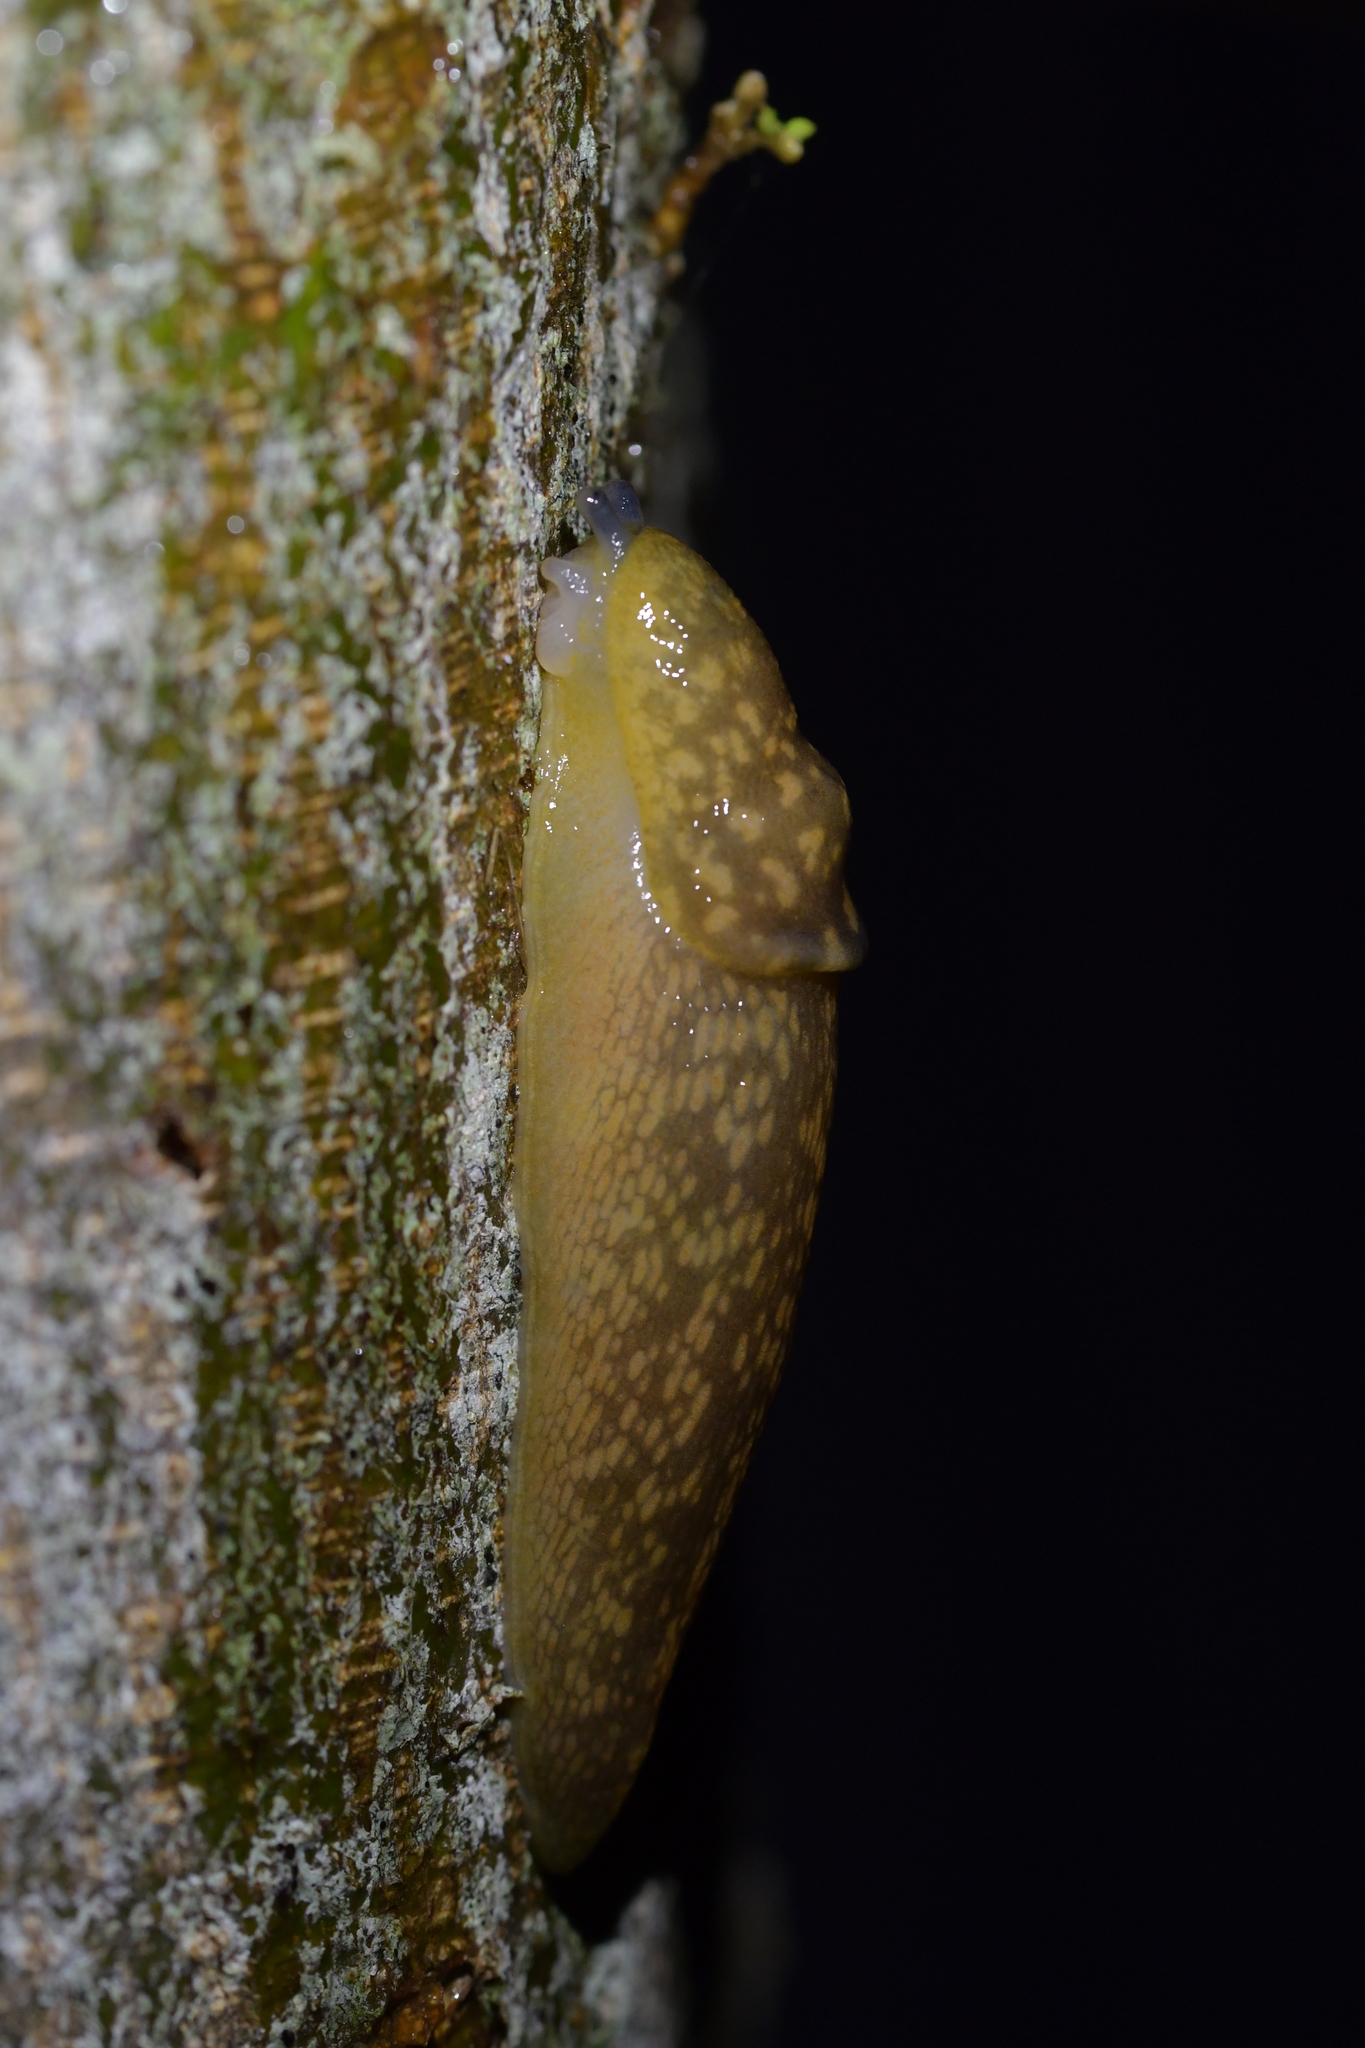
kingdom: Animalia
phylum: Mollusca
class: Gastropoda
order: Stylommatophora
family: Limacidae
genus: Limacus
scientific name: Limacus flavus
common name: Yellow gardenslug
